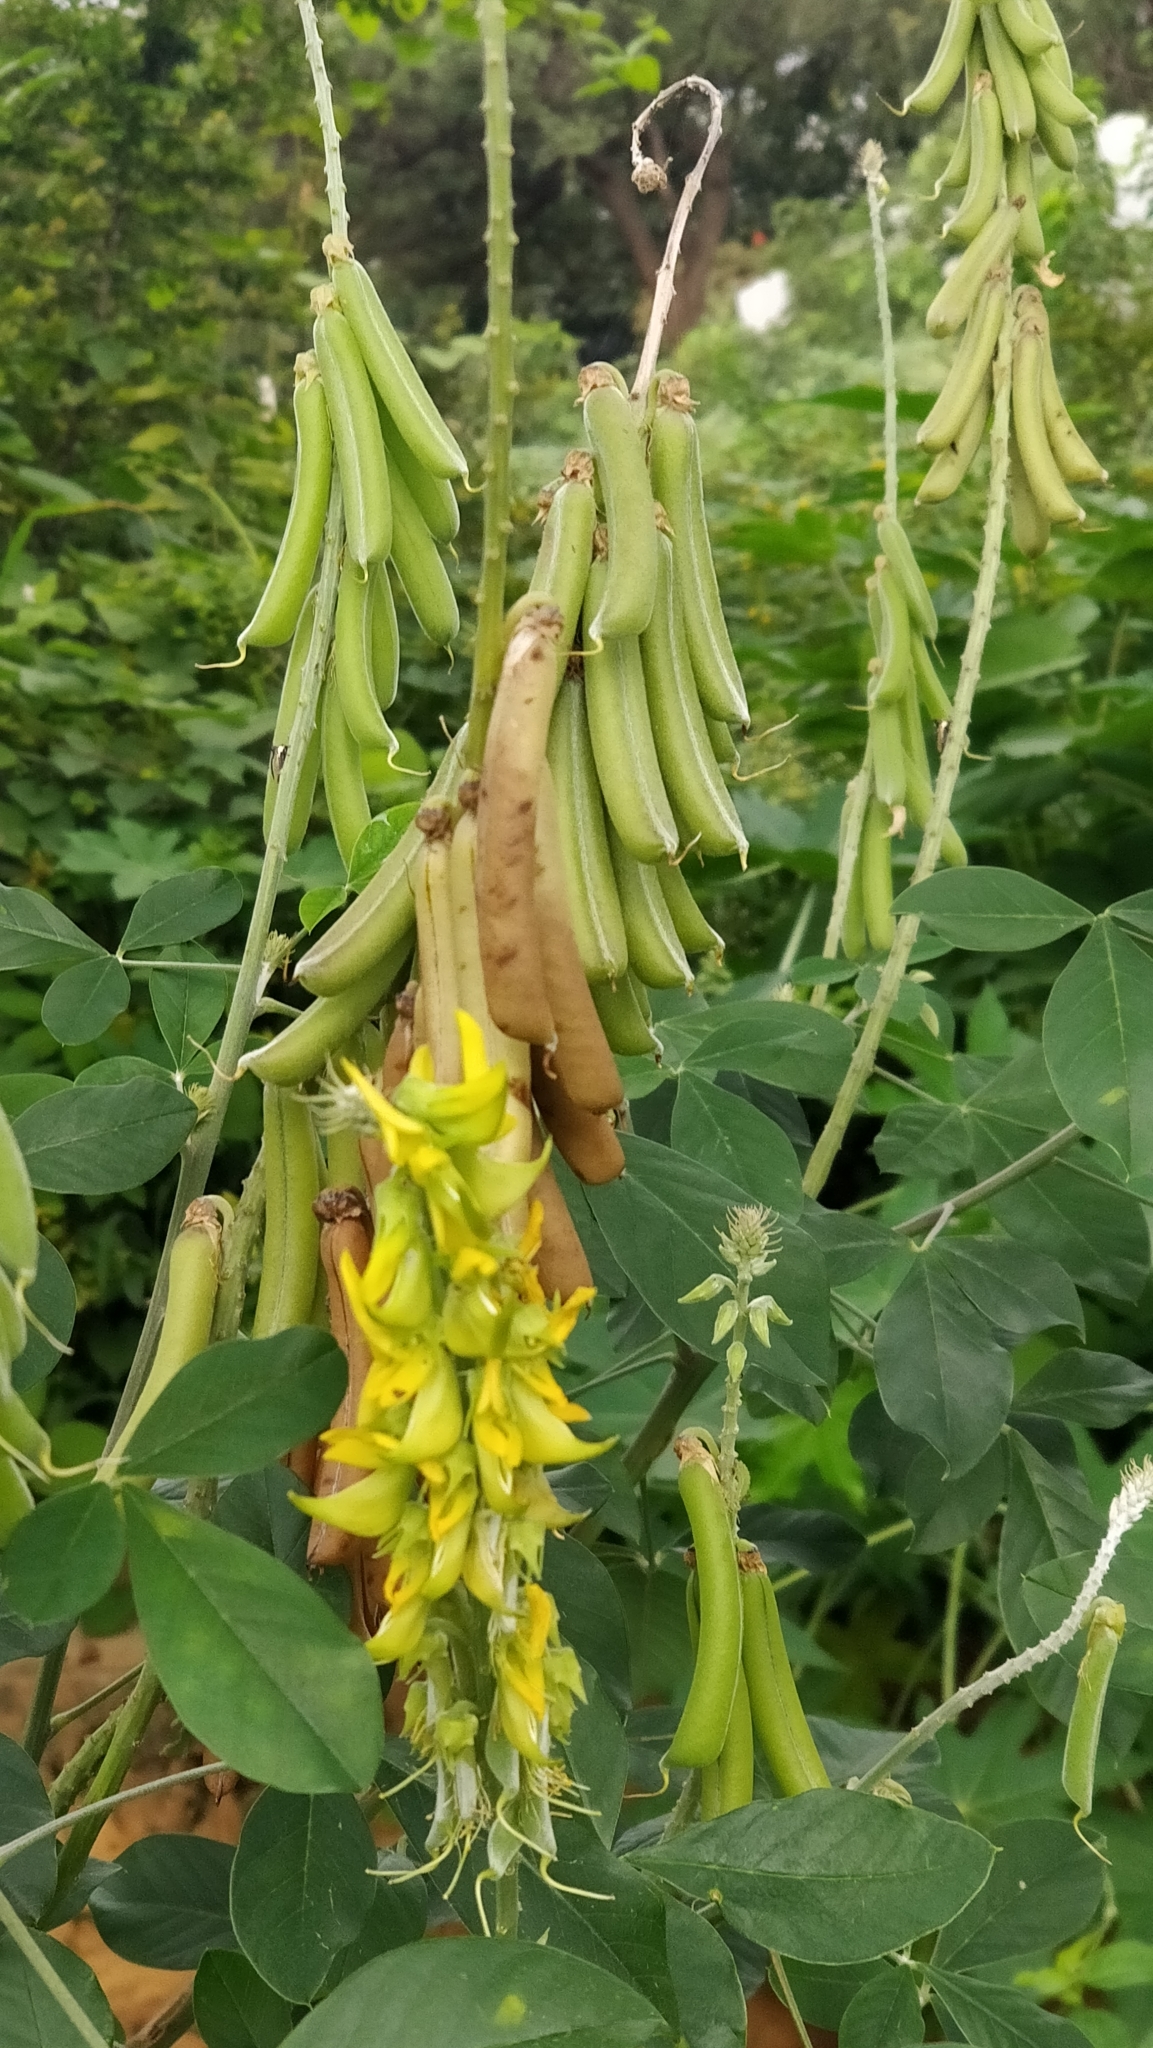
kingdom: Plantae
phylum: Tracheophyta
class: Magnoliopsida
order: Fabales
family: Fabaceae
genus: Crotalaria
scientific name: Crotalaria pallida
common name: Smooth rattlebox
